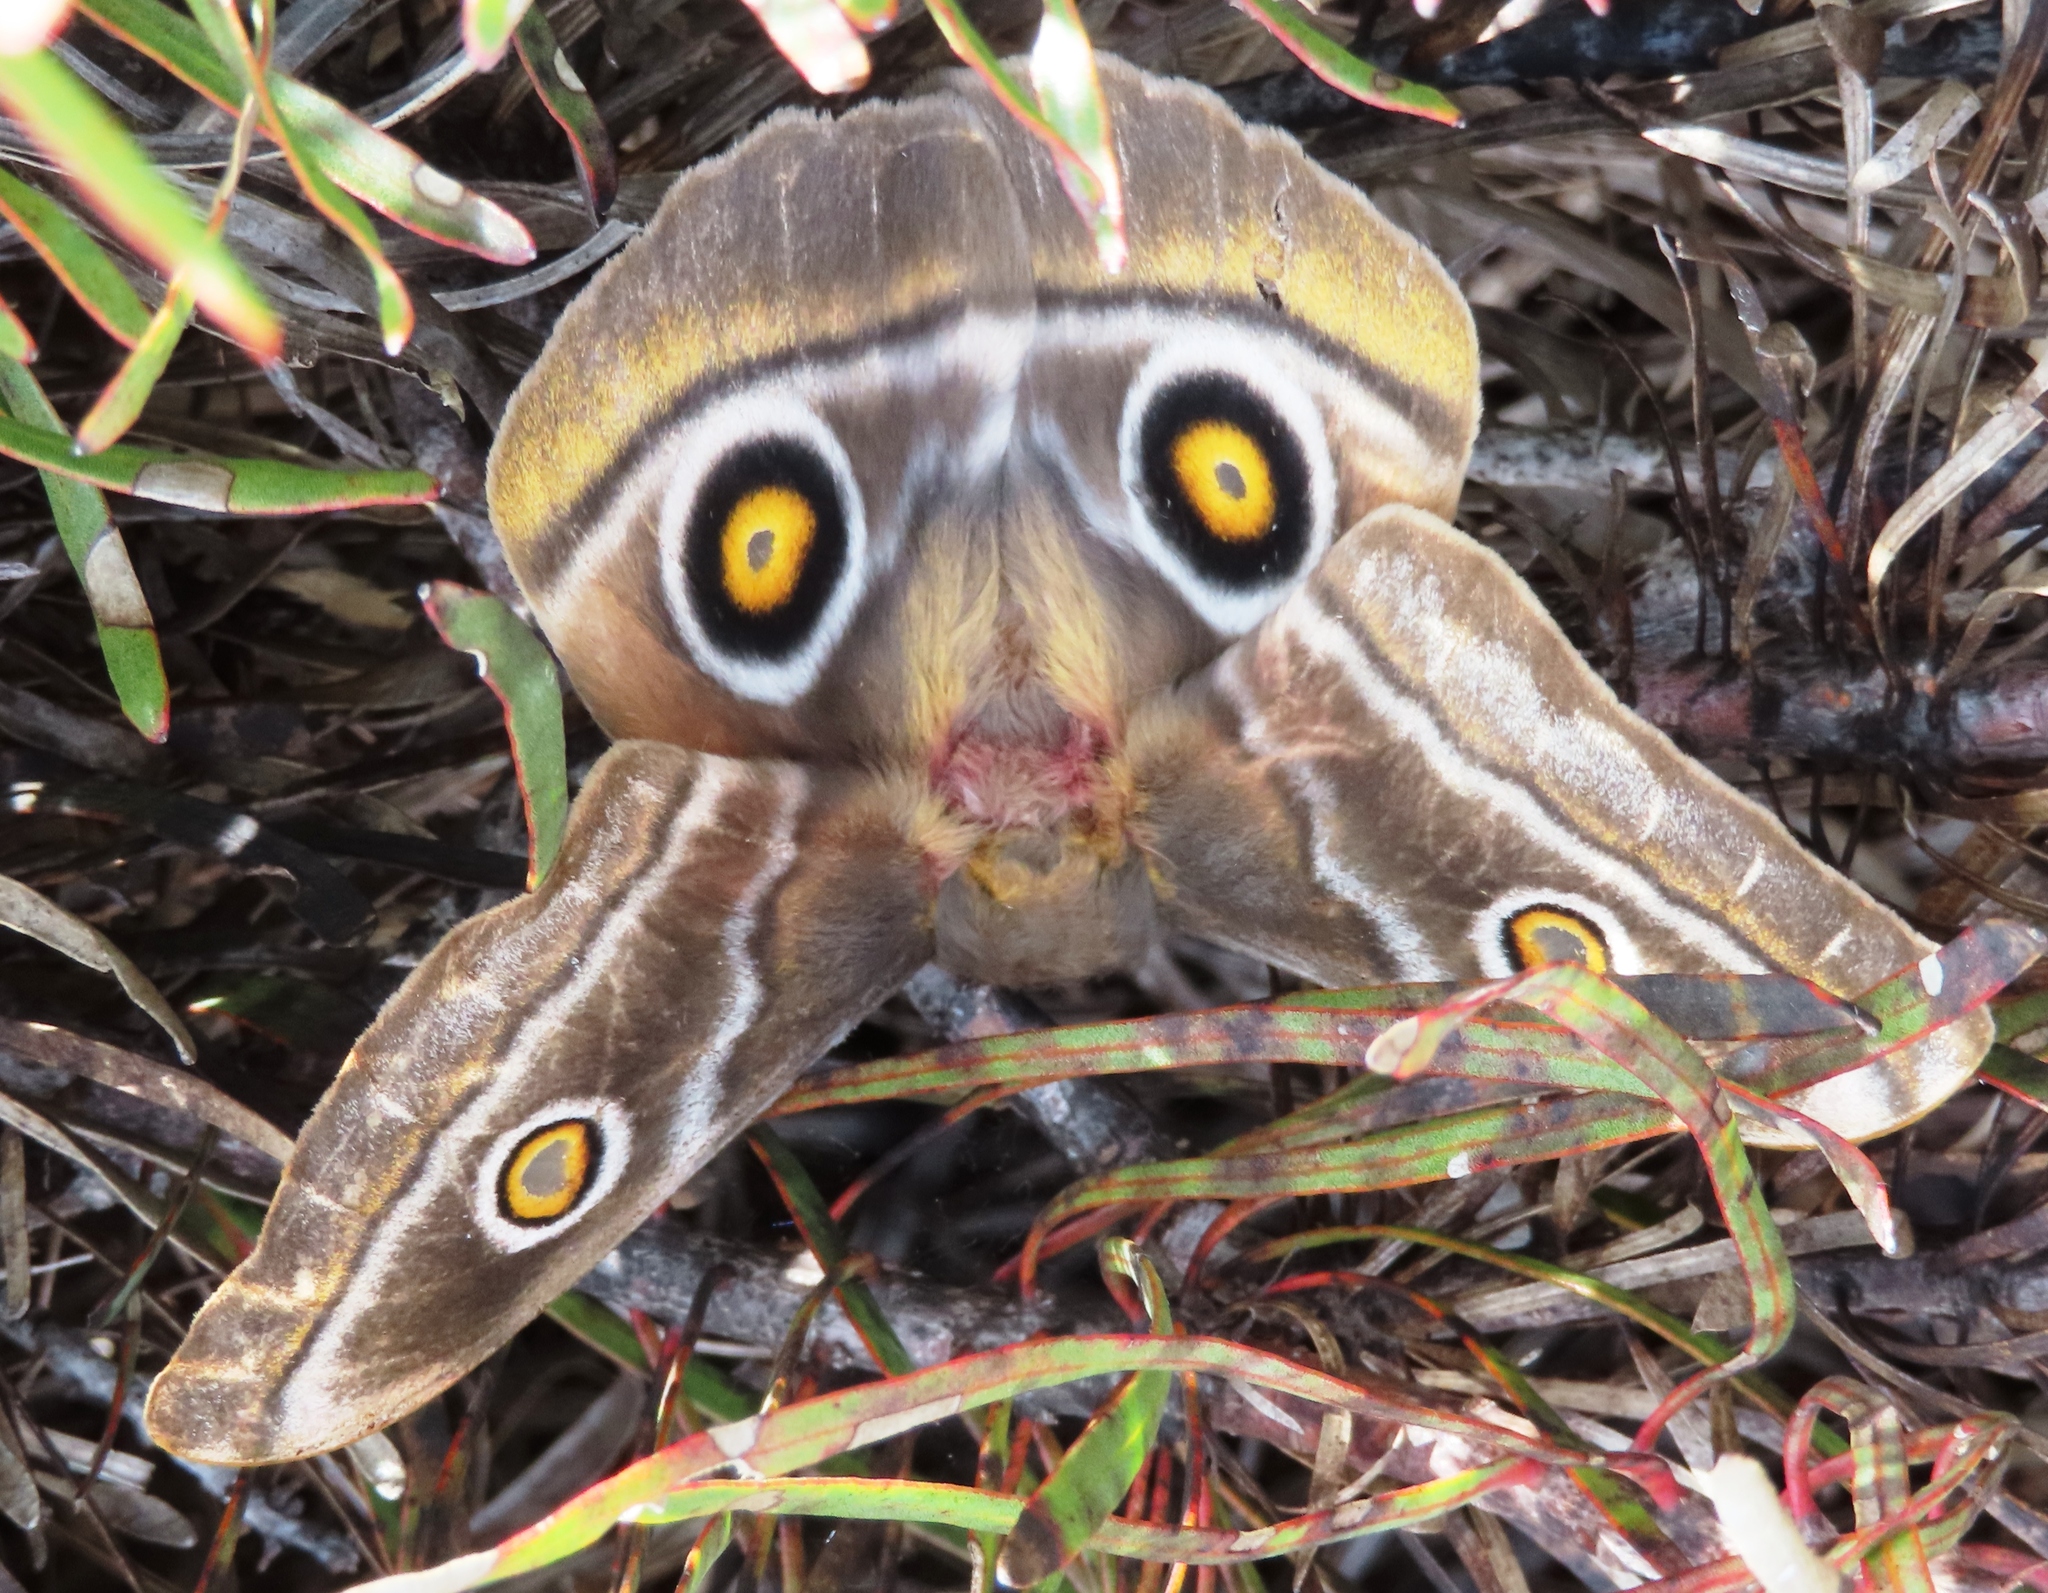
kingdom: Animalia
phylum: Arthropoda
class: Insecta
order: Lepidoptera
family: Saturniidae
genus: Nudaurelia
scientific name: Nudaurelia cytherea
